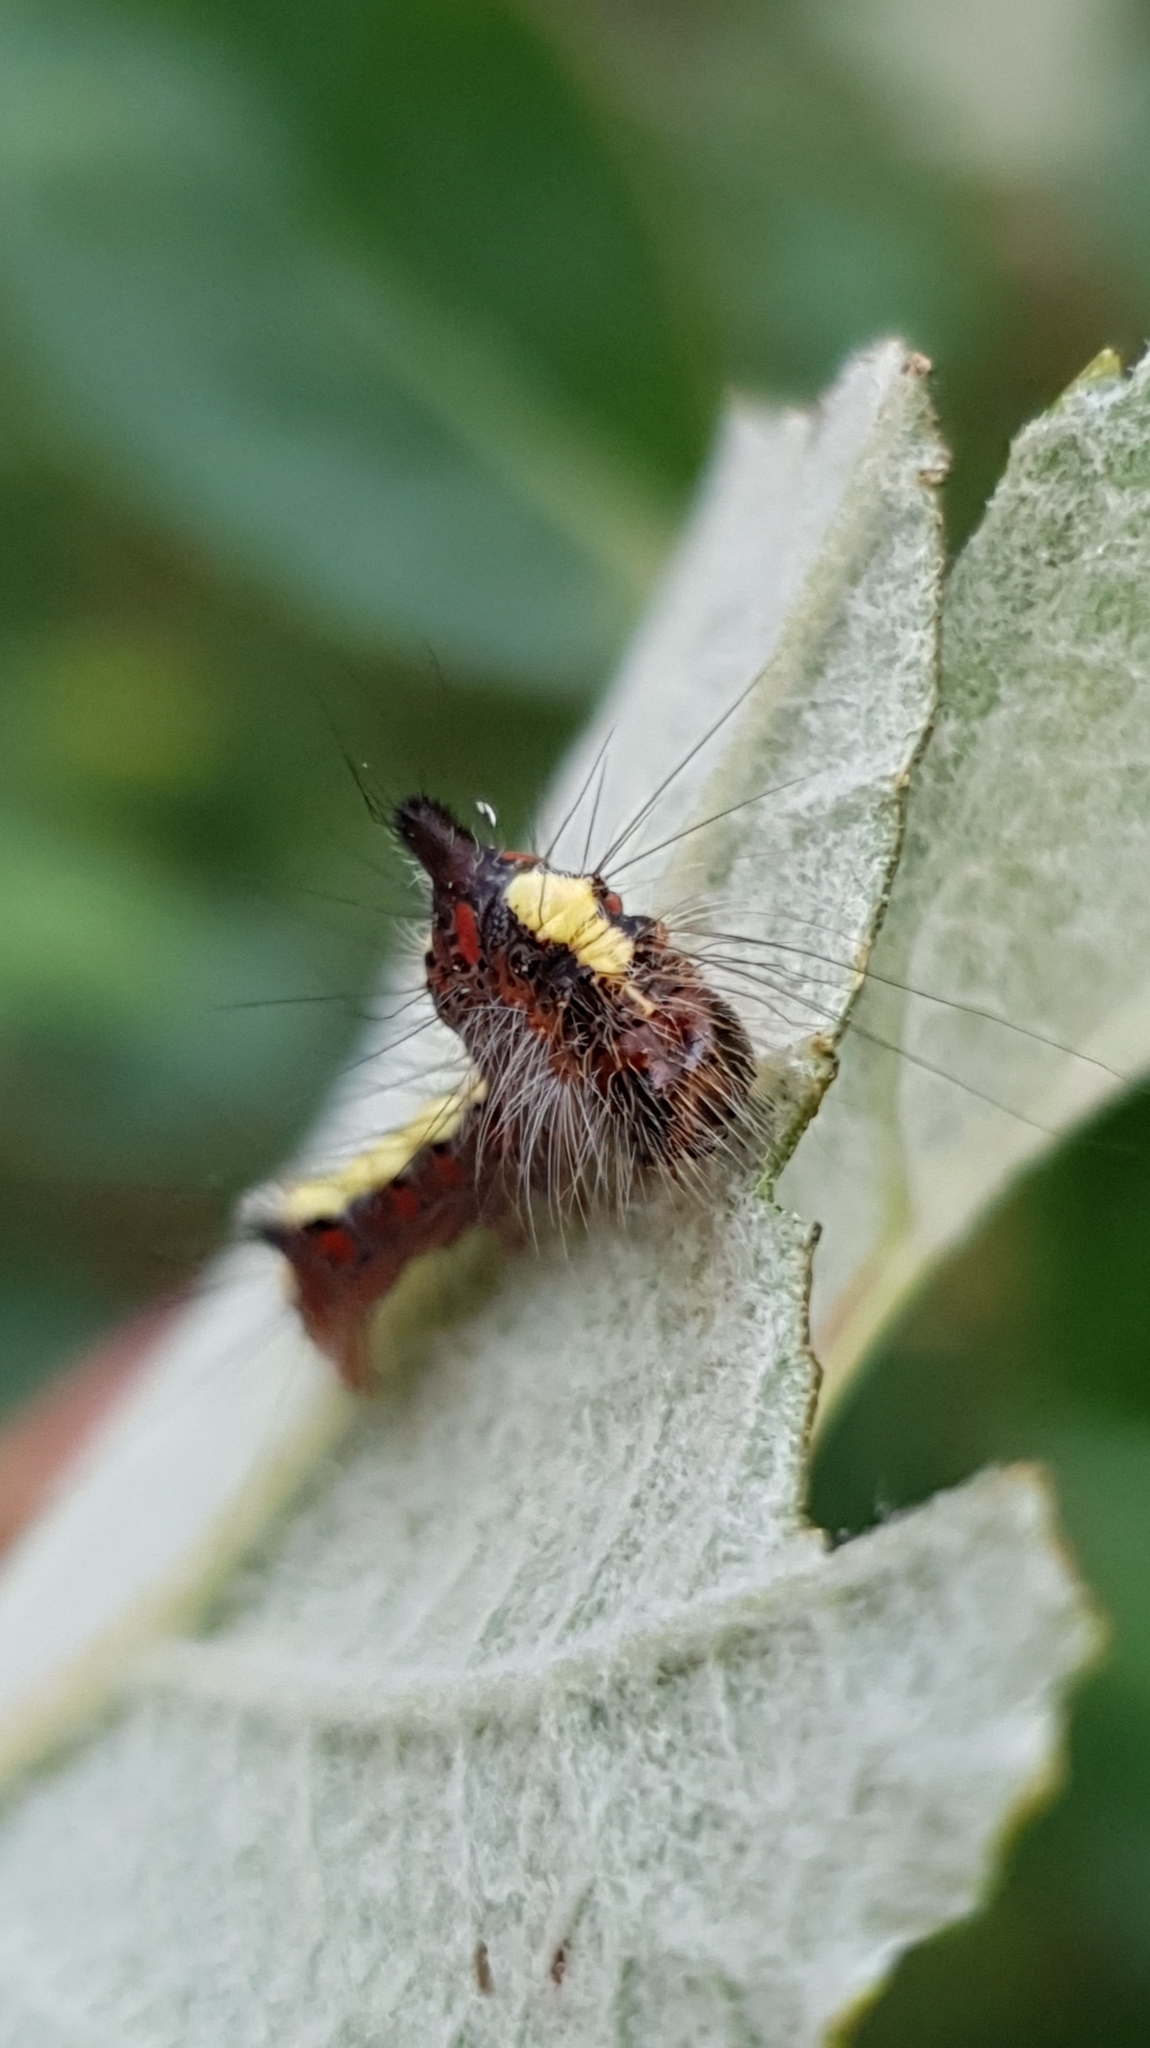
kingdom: Animalia
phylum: Arthropoda
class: Insecta
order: Lepidoptera
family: Noctuidae
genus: Acronicta
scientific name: Acronicta psi
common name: Grey dagger
